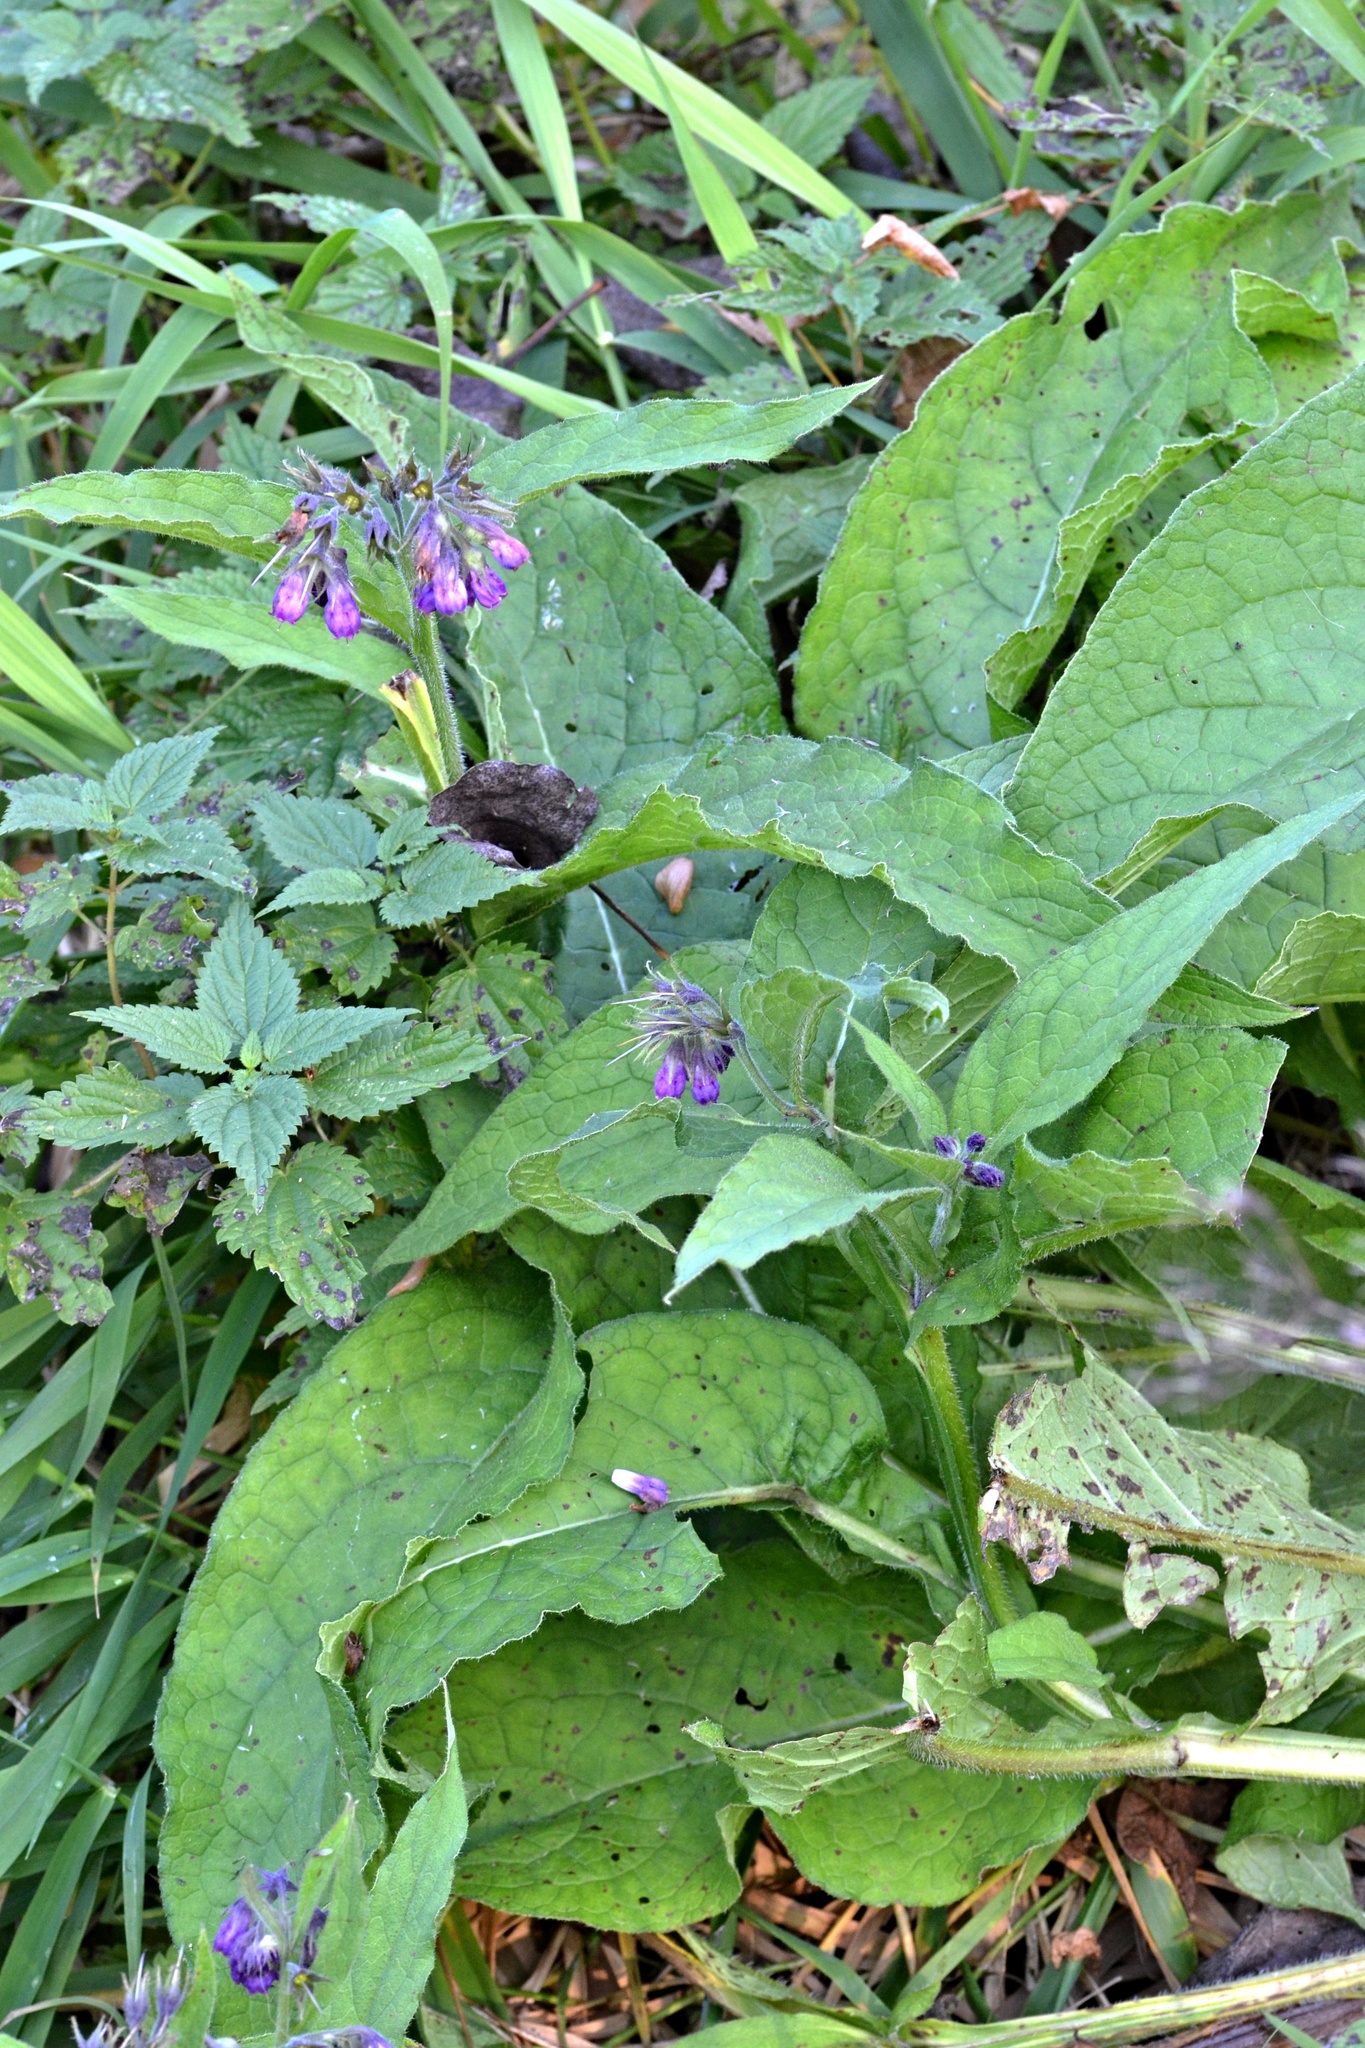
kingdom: Plantae
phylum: Tracheophyta
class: Magnoliopsida
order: Boraginales
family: Boraginaceae
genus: Symphytum
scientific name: Symphytum officinale
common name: Common comfrey
